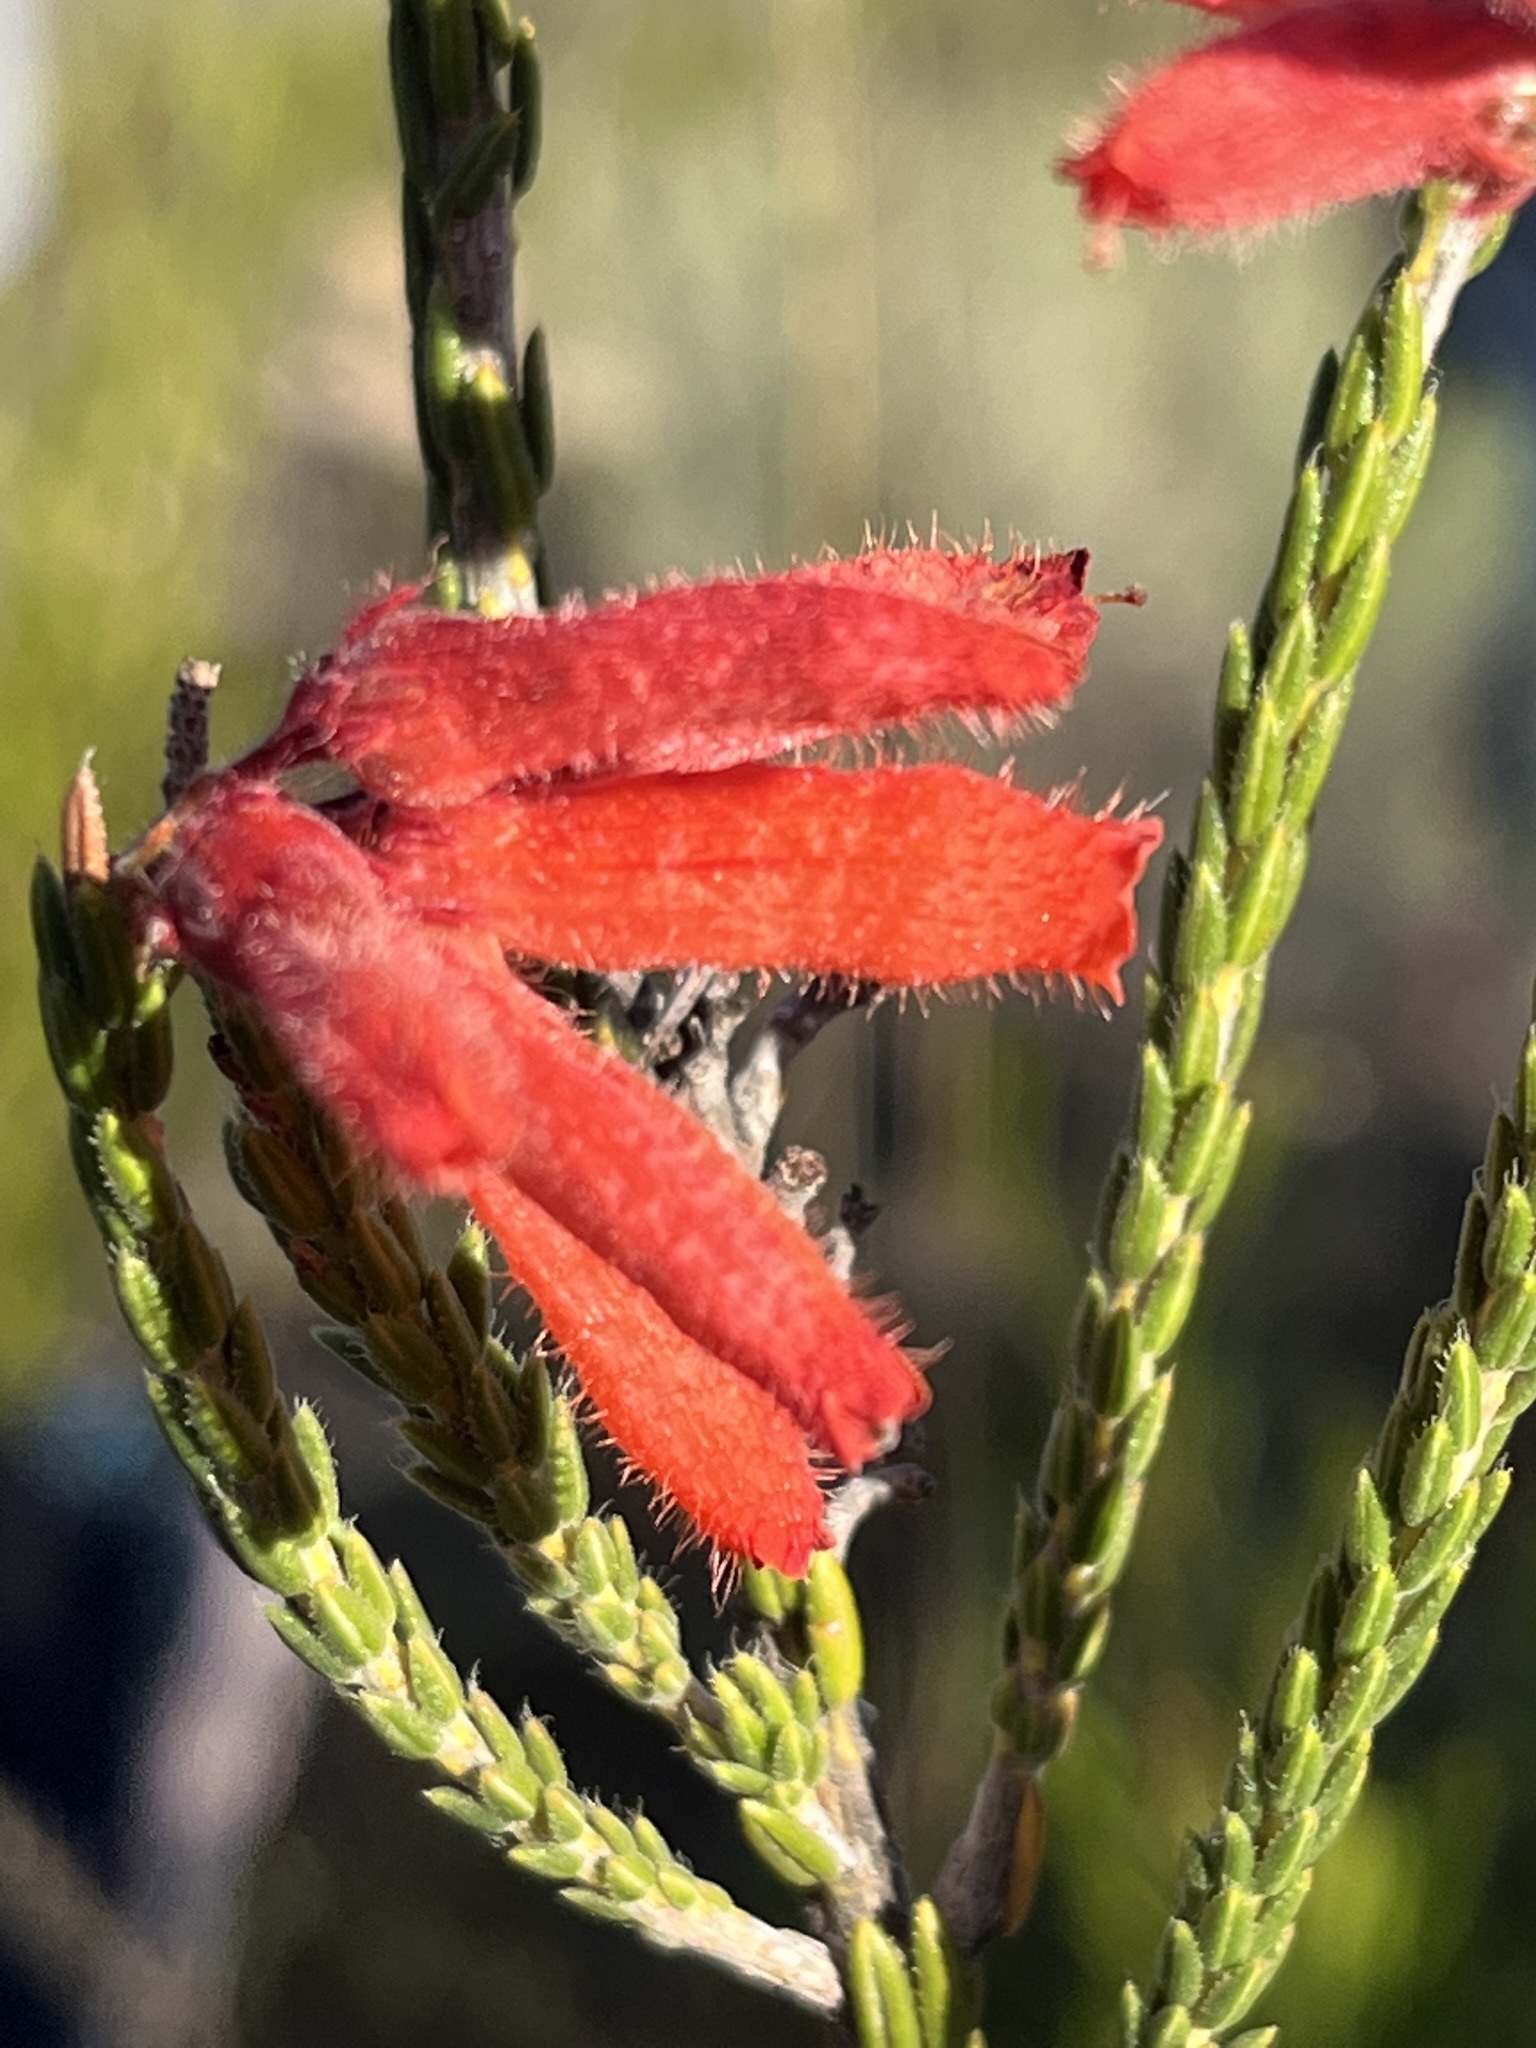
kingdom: Plantae
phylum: Tracheophyta
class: Magnoliopsida
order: Ericales
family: Ericaceae
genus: Erica
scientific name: Erica cerinthoides
